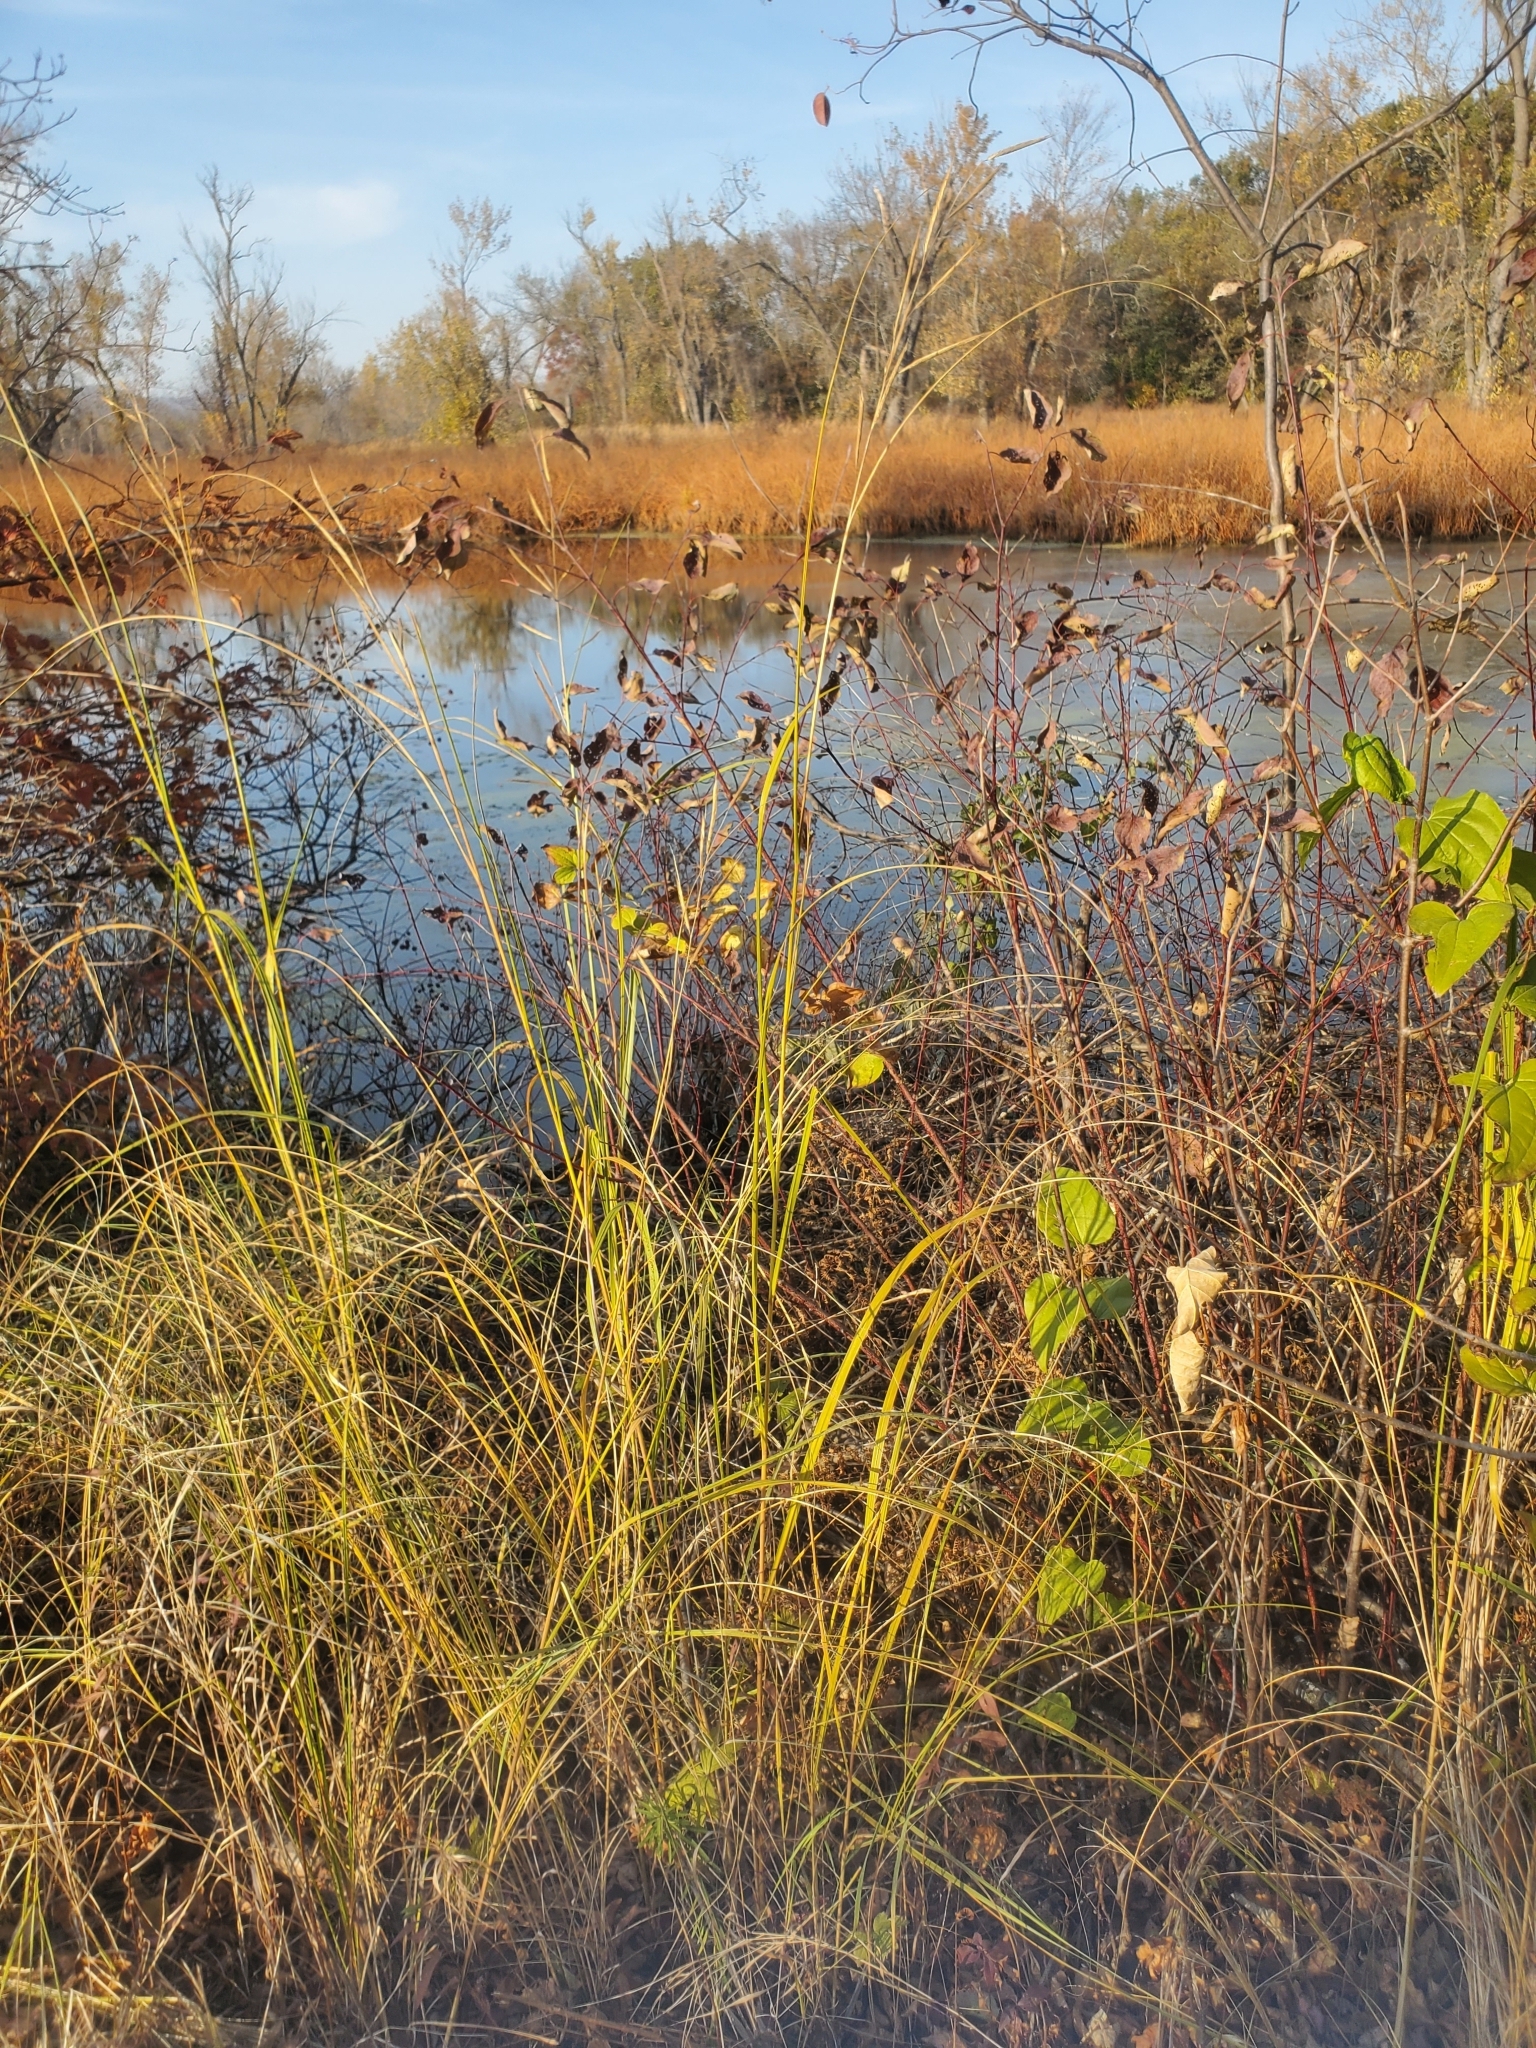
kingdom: Plantae
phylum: Tracheophyta
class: Liliopsida
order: Poales
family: Poaceae
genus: Sporobolus
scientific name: Sporobolus michauxianus
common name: Freshwater cordgrass
